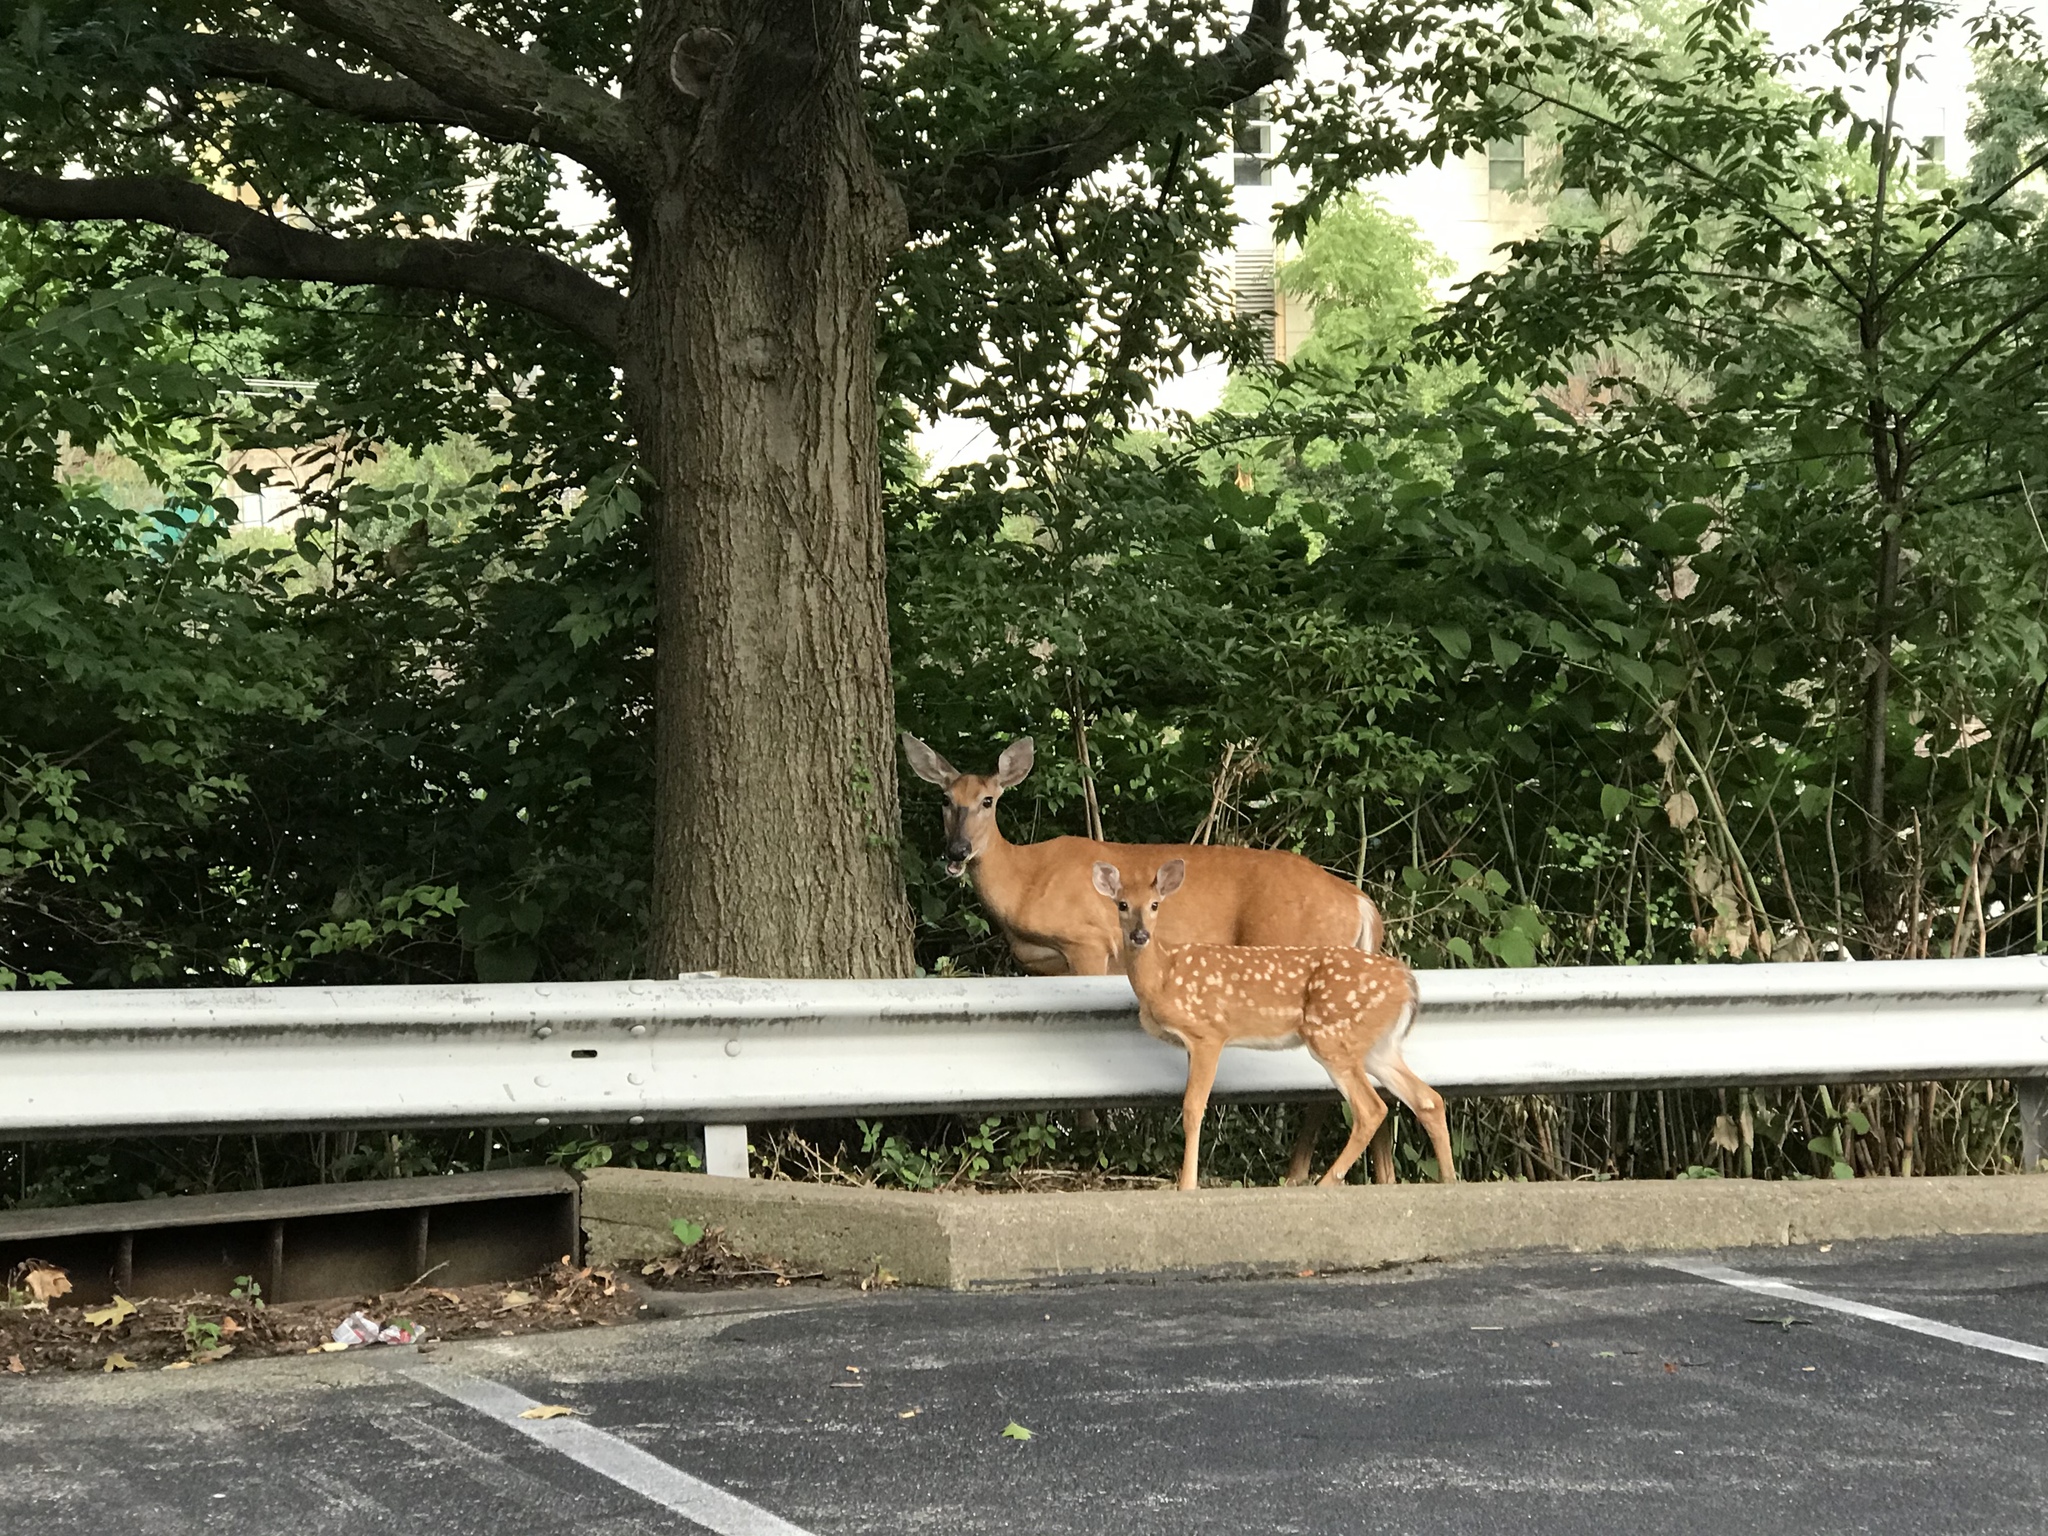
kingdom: Animalia
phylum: Chordata
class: Mammalia
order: Artiodactyla
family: Cervidae
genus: Odocoileus
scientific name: Odocoileus virginianus
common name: White-tailed deer
